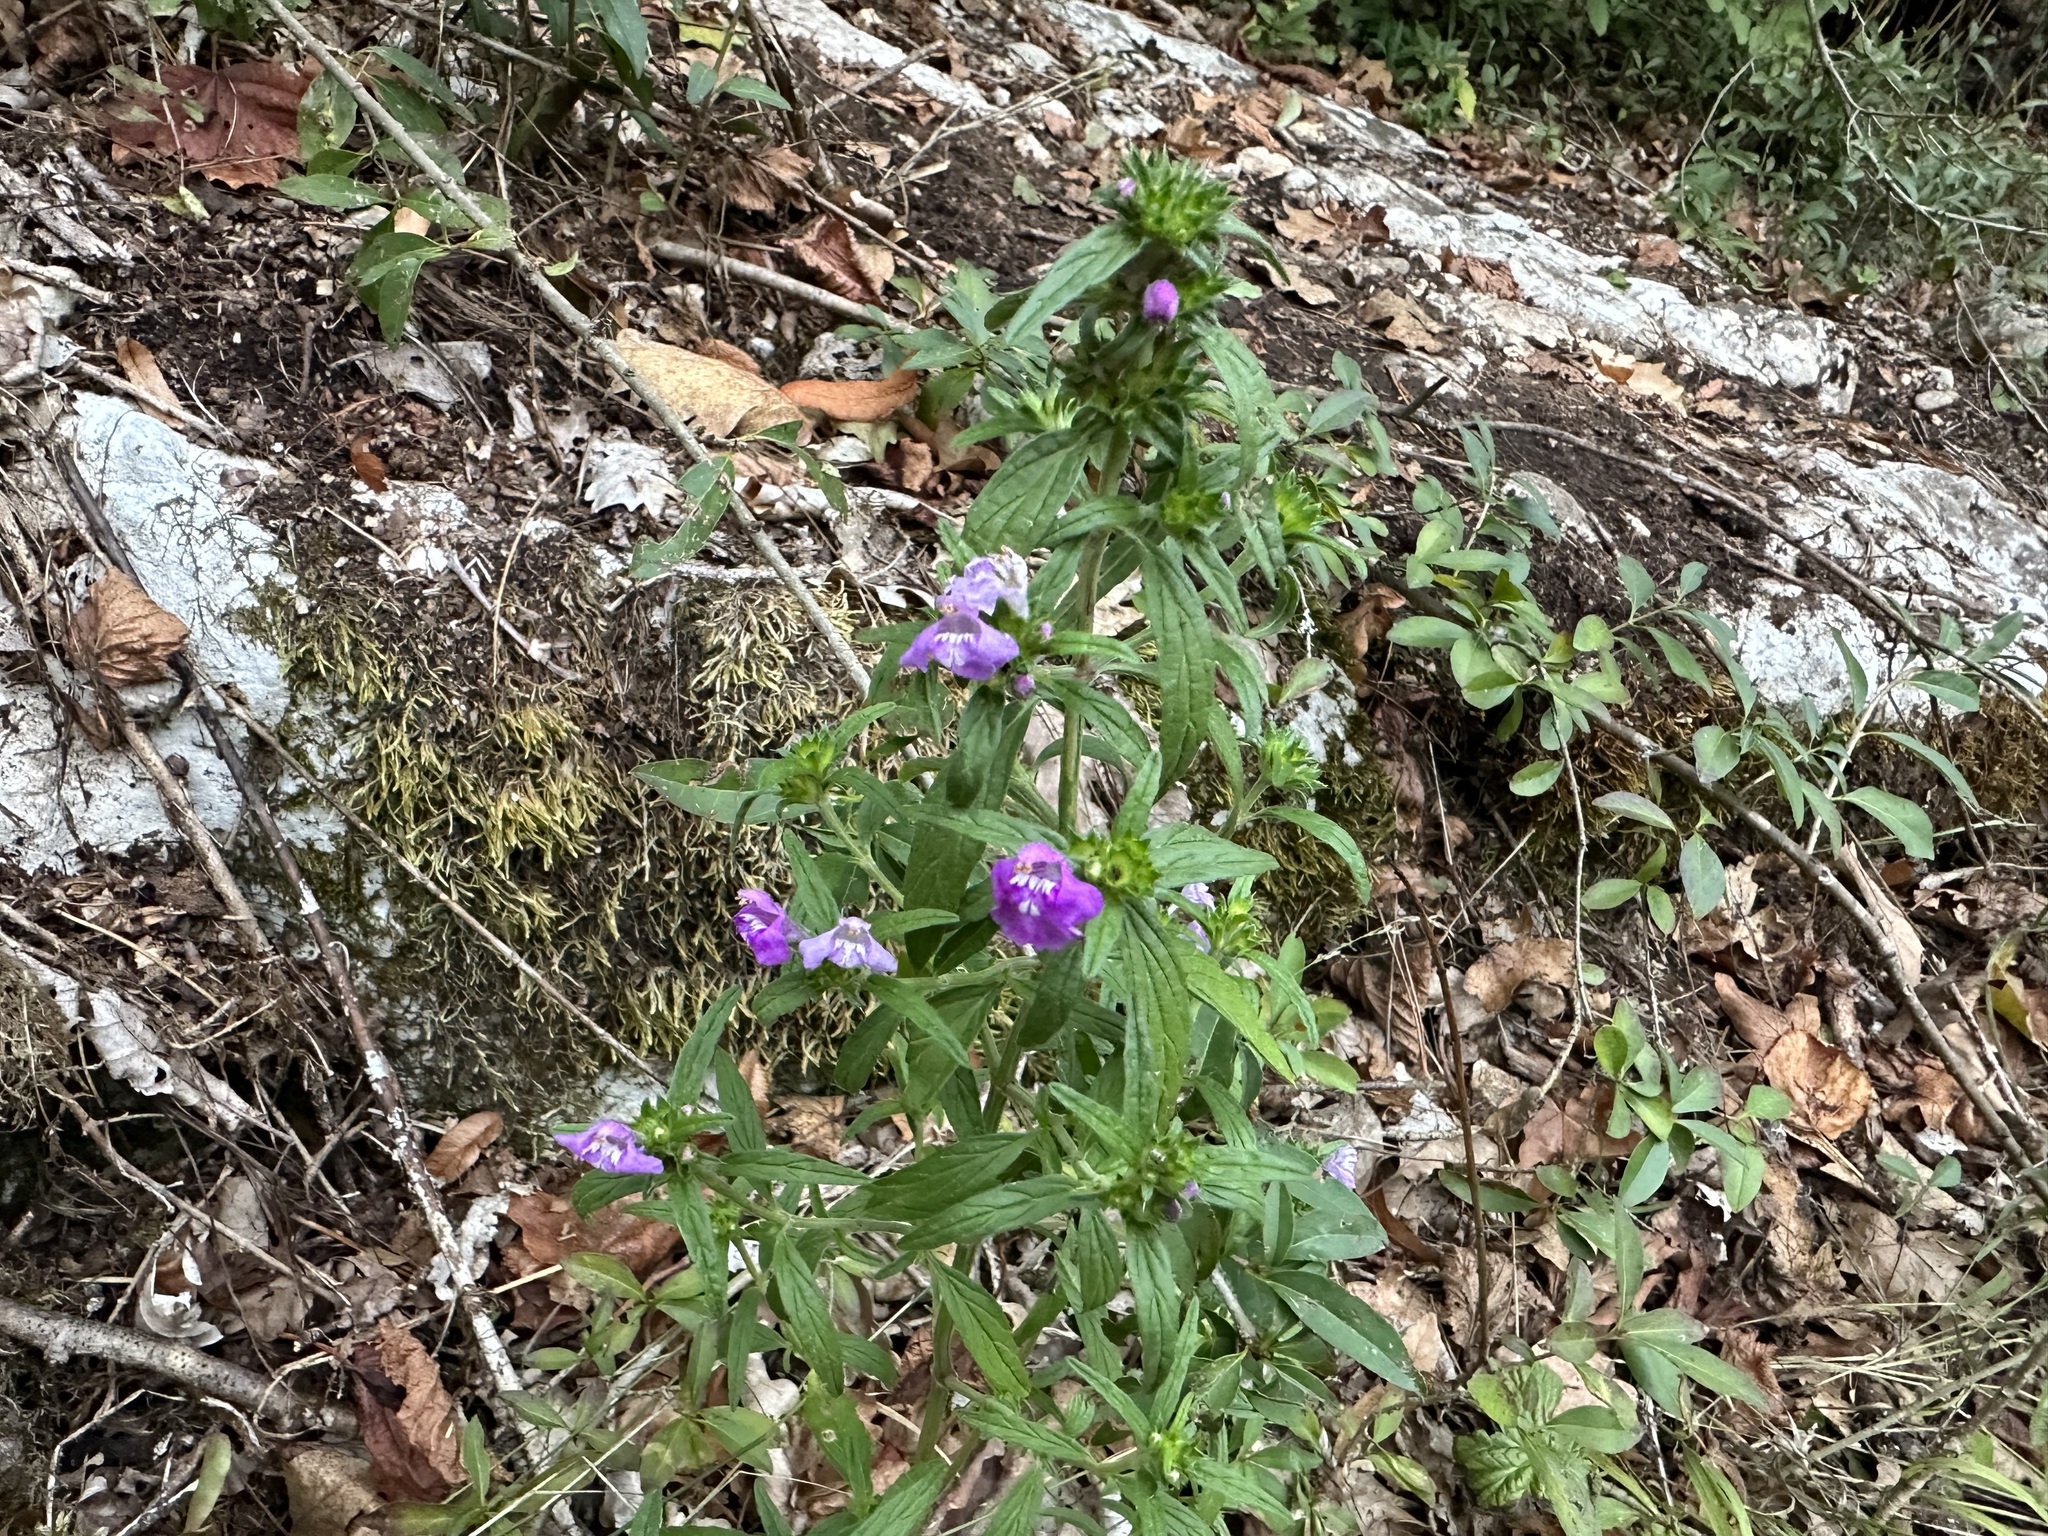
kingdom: Plantae
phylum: Tracheophyta
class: Magnoliopsida
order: Lamiales
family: Lamiaceae
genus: Galeopsis
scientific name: Galeopsis angustifolia
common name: Red hemp-nettle
